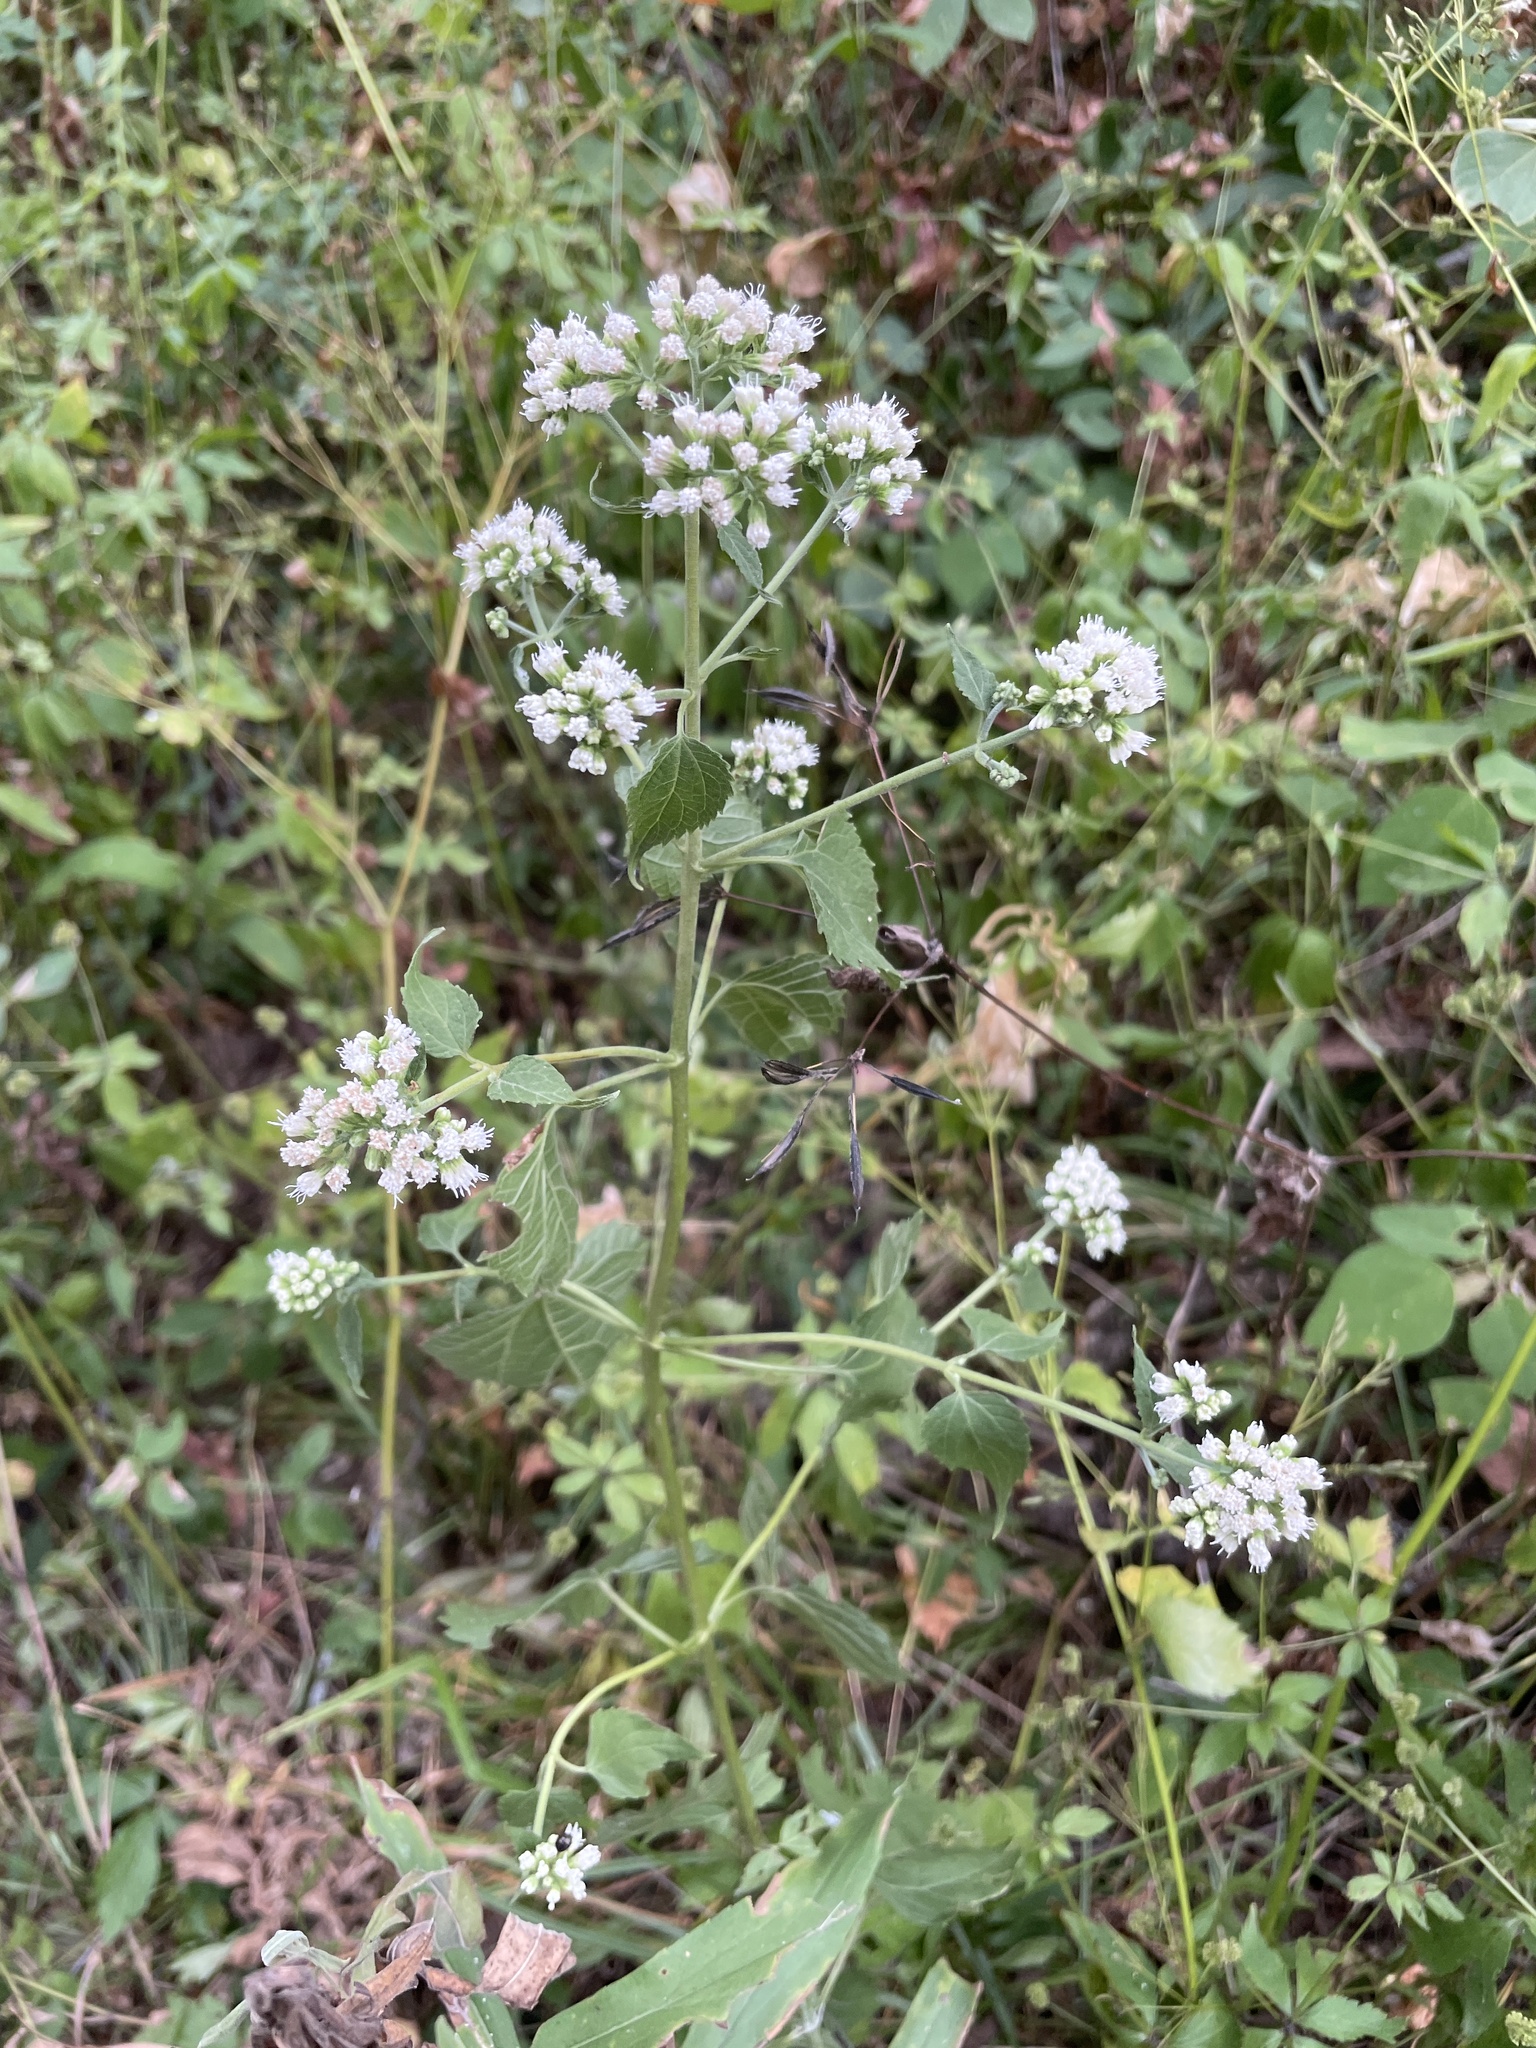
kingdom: Plantae
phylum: Tracheophyta
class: Magnoliopsida
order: Asterales
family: Asteraceae
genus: Eupatorium
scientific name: Eupatorium serotinum
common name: Late boneset
